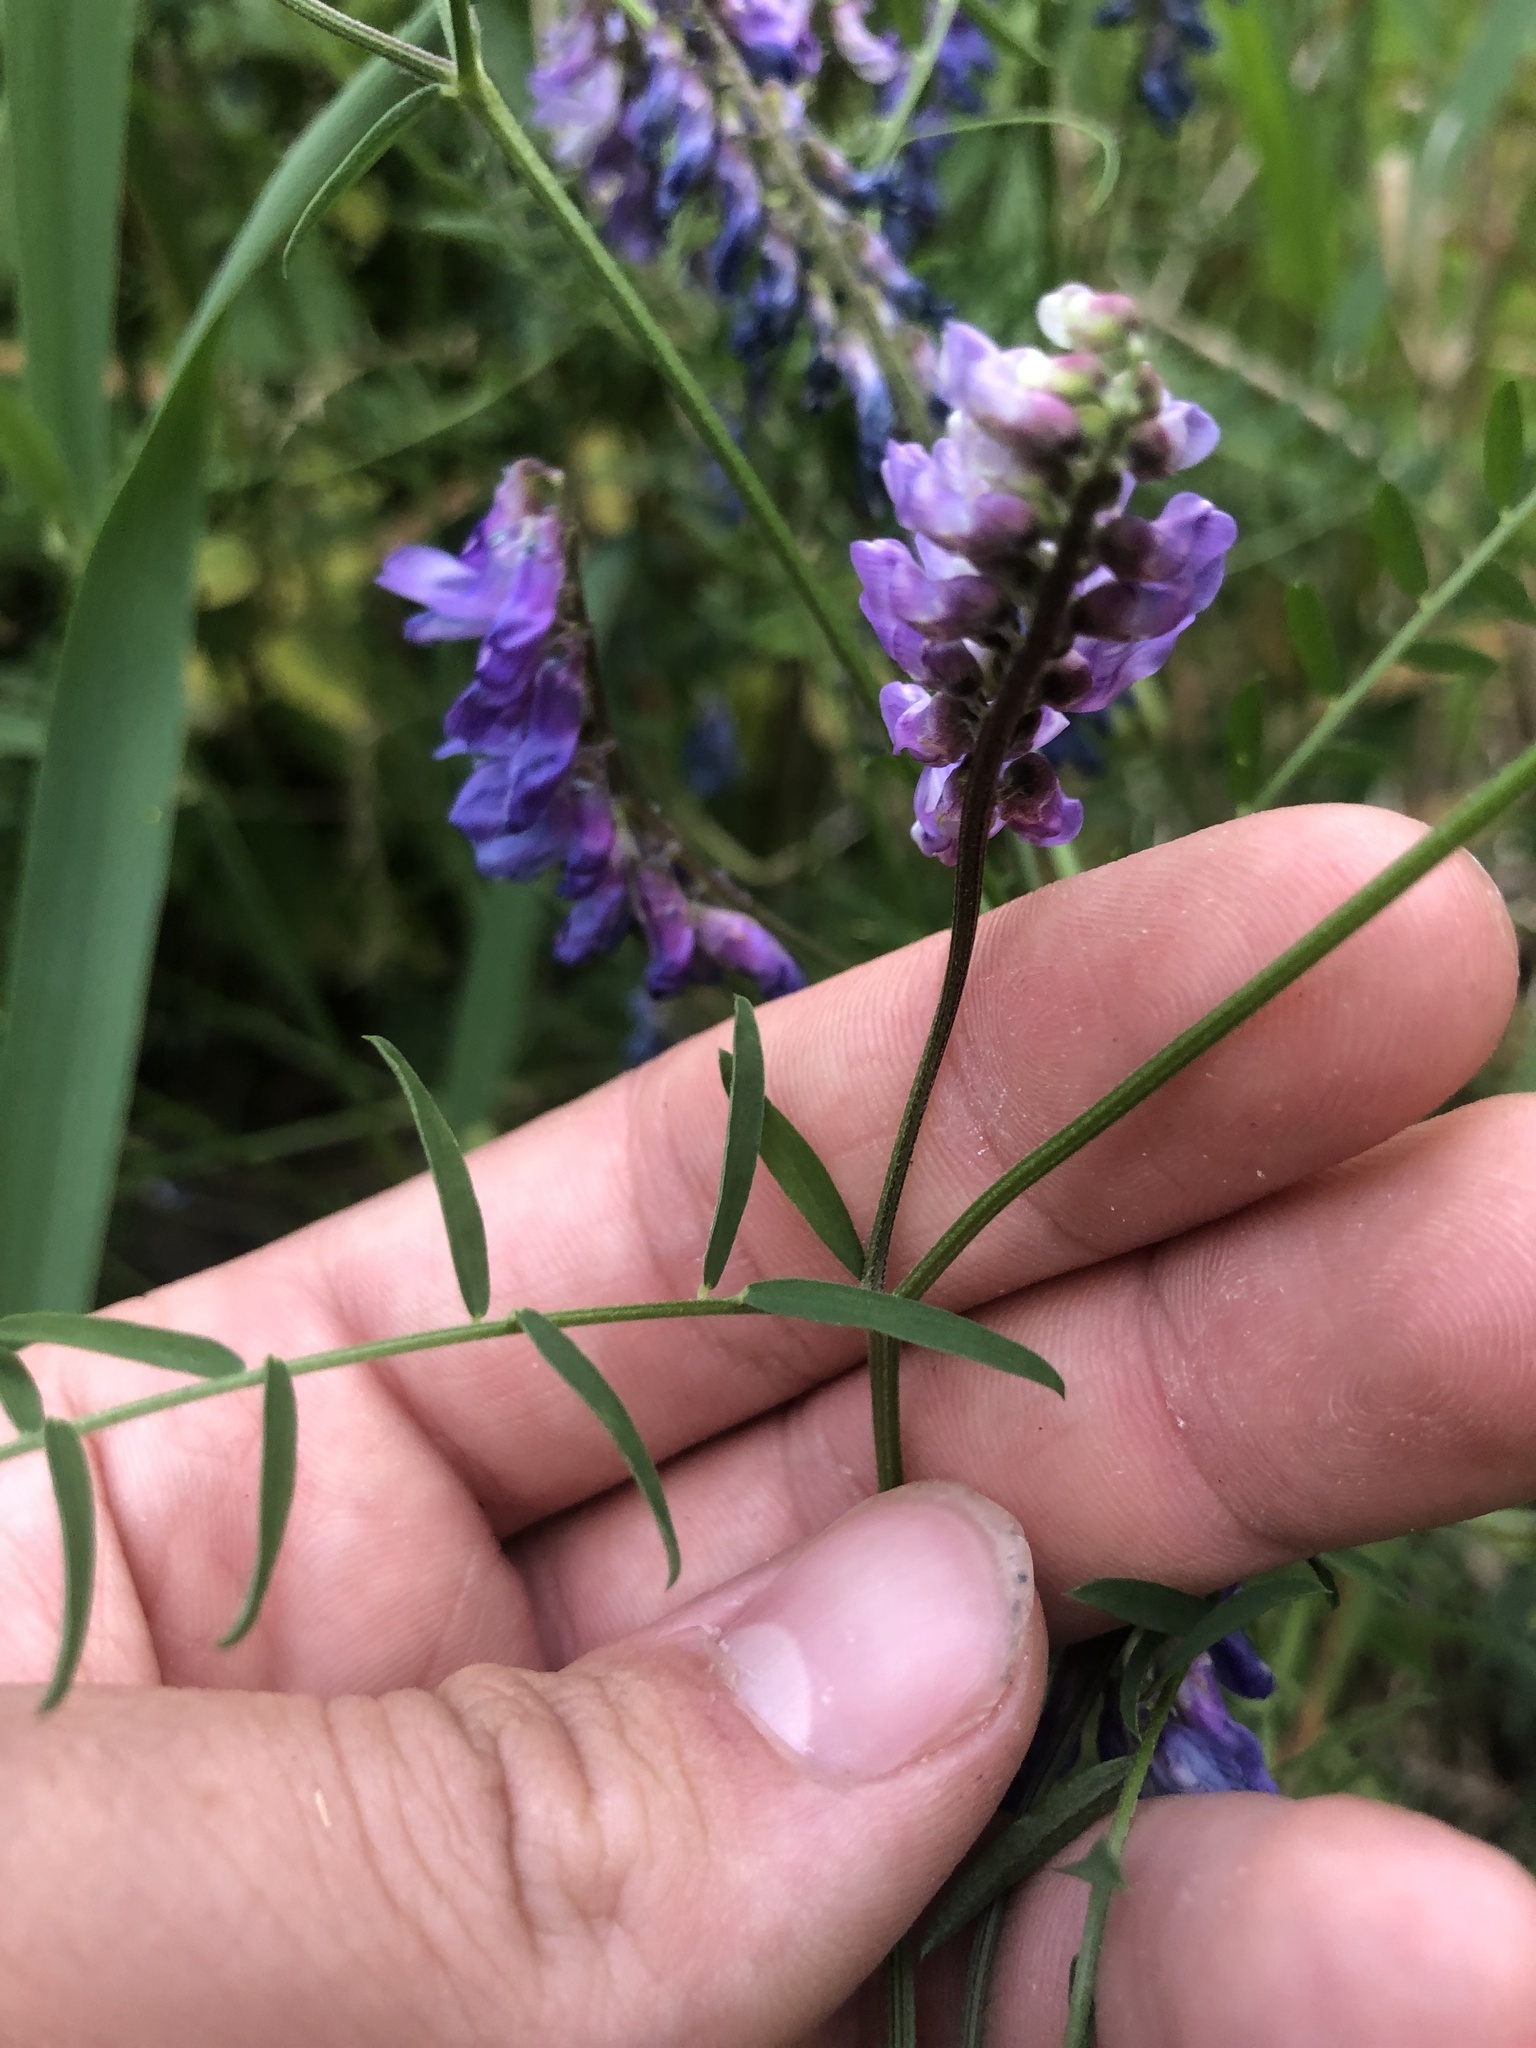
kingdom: Plantae
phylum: Tracheophyta
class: Magnoliopsida
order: Fabales
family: Fabaceae
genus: Vicia
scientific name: Vicia cracca
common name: Bird vetch
